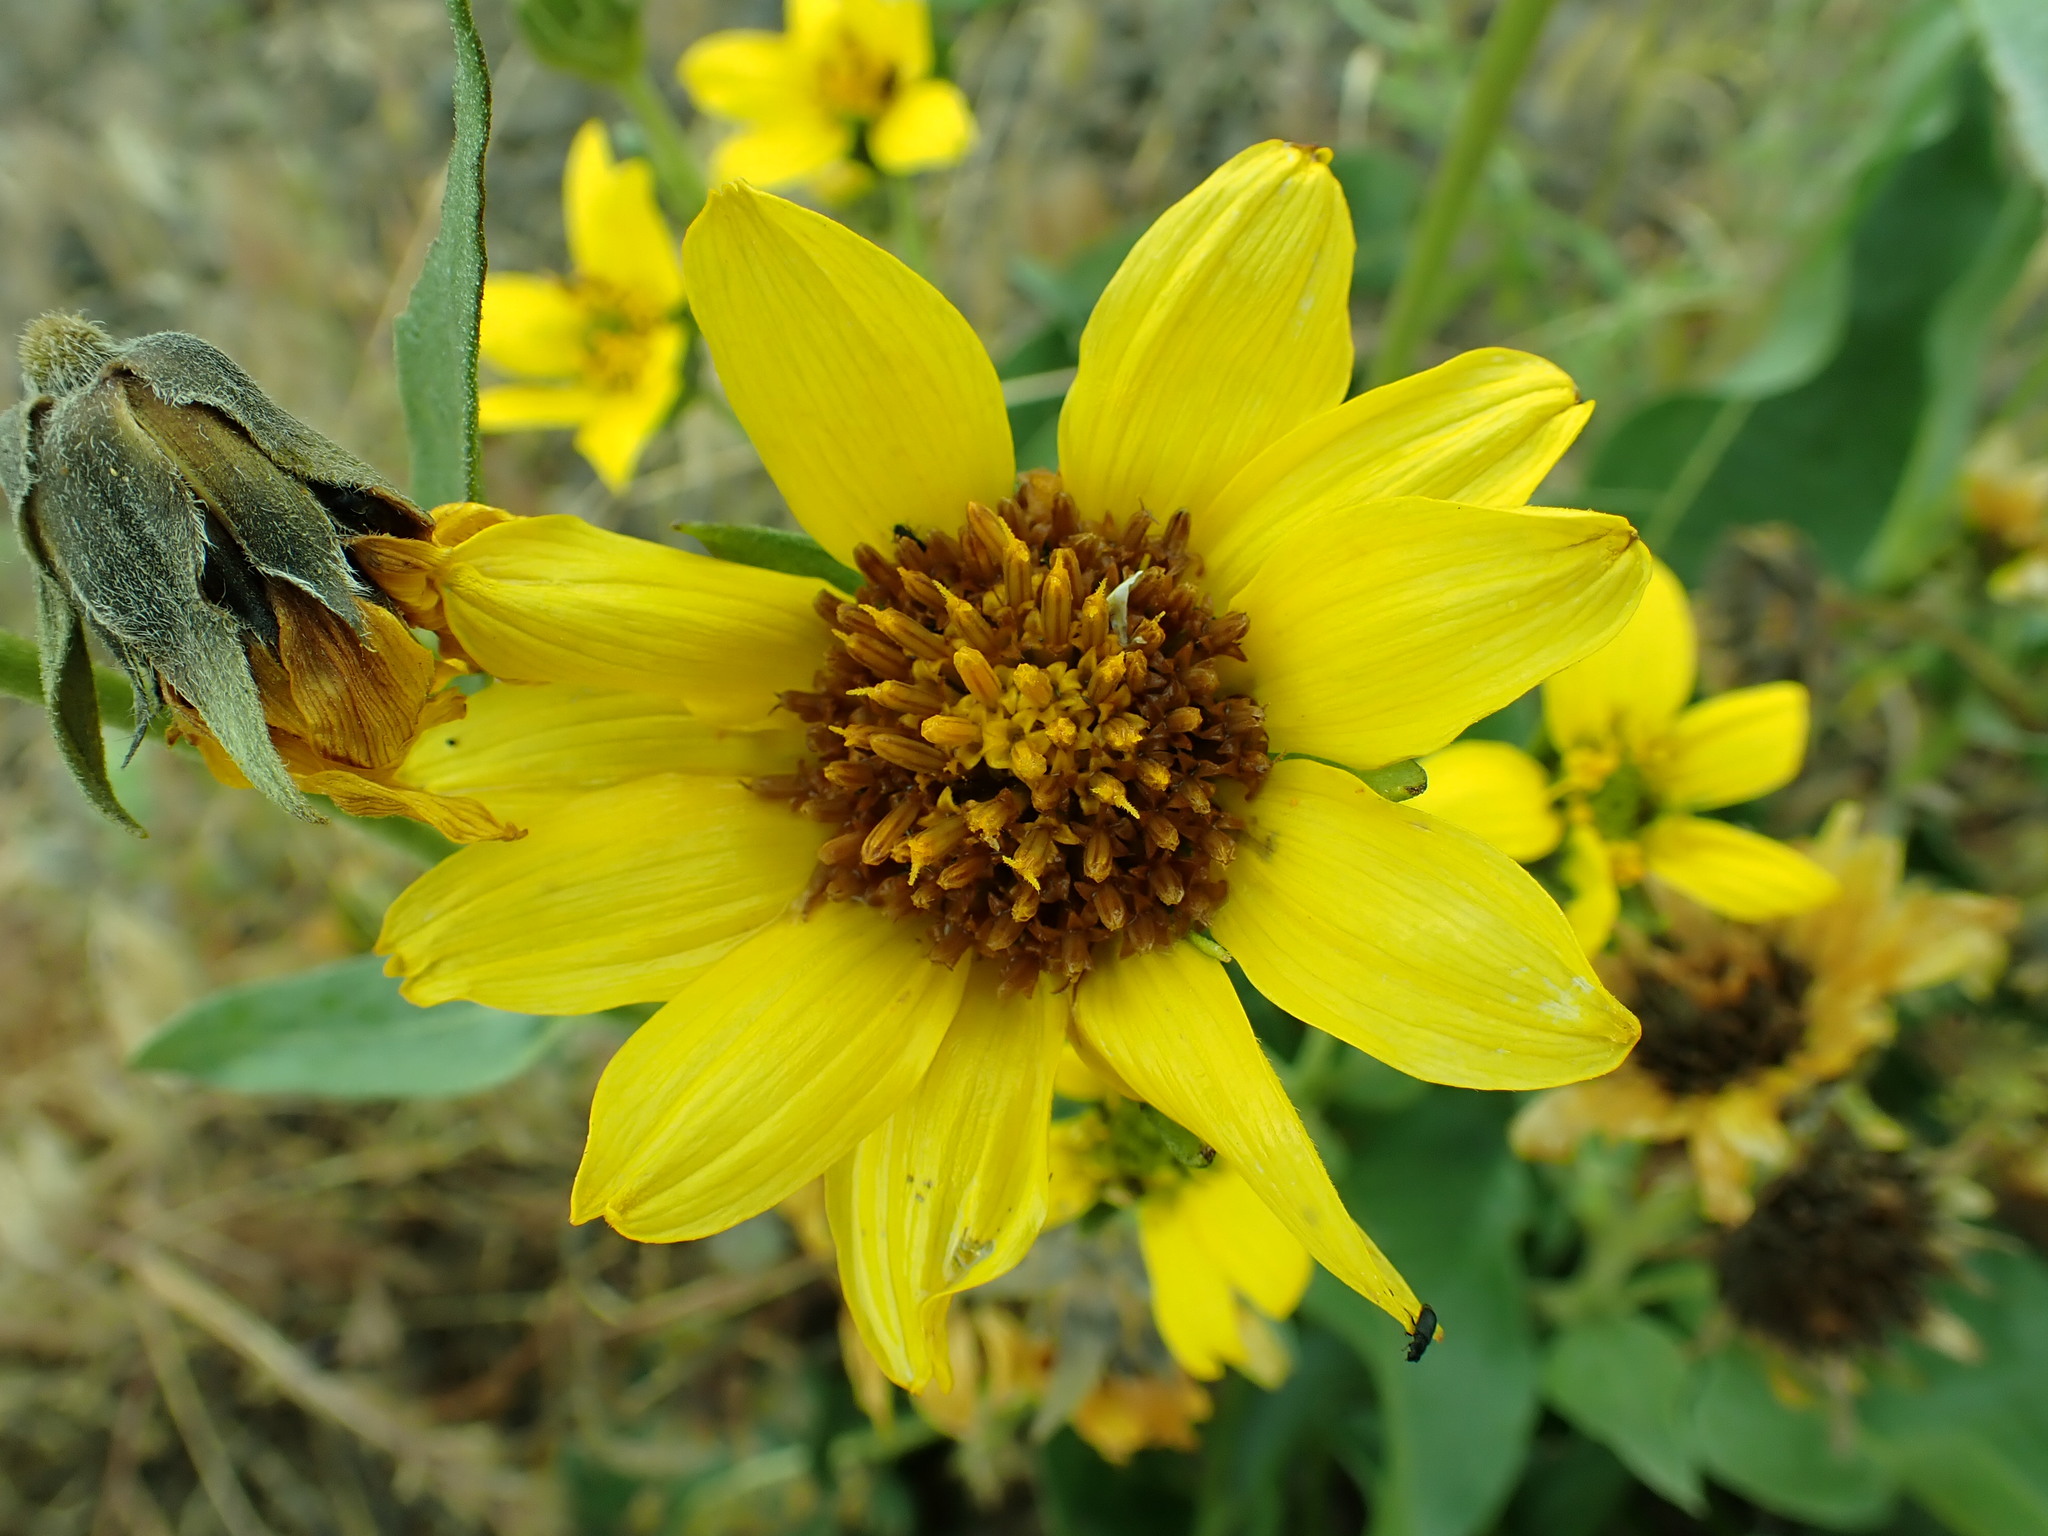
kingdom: Plantae
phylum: Tracheophyta
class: Magnoliopsida
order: Asterales
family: Asteraceae
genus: Balsamorhiza
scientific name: Balsamorhiza careyana
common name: Carey's balsamroot
